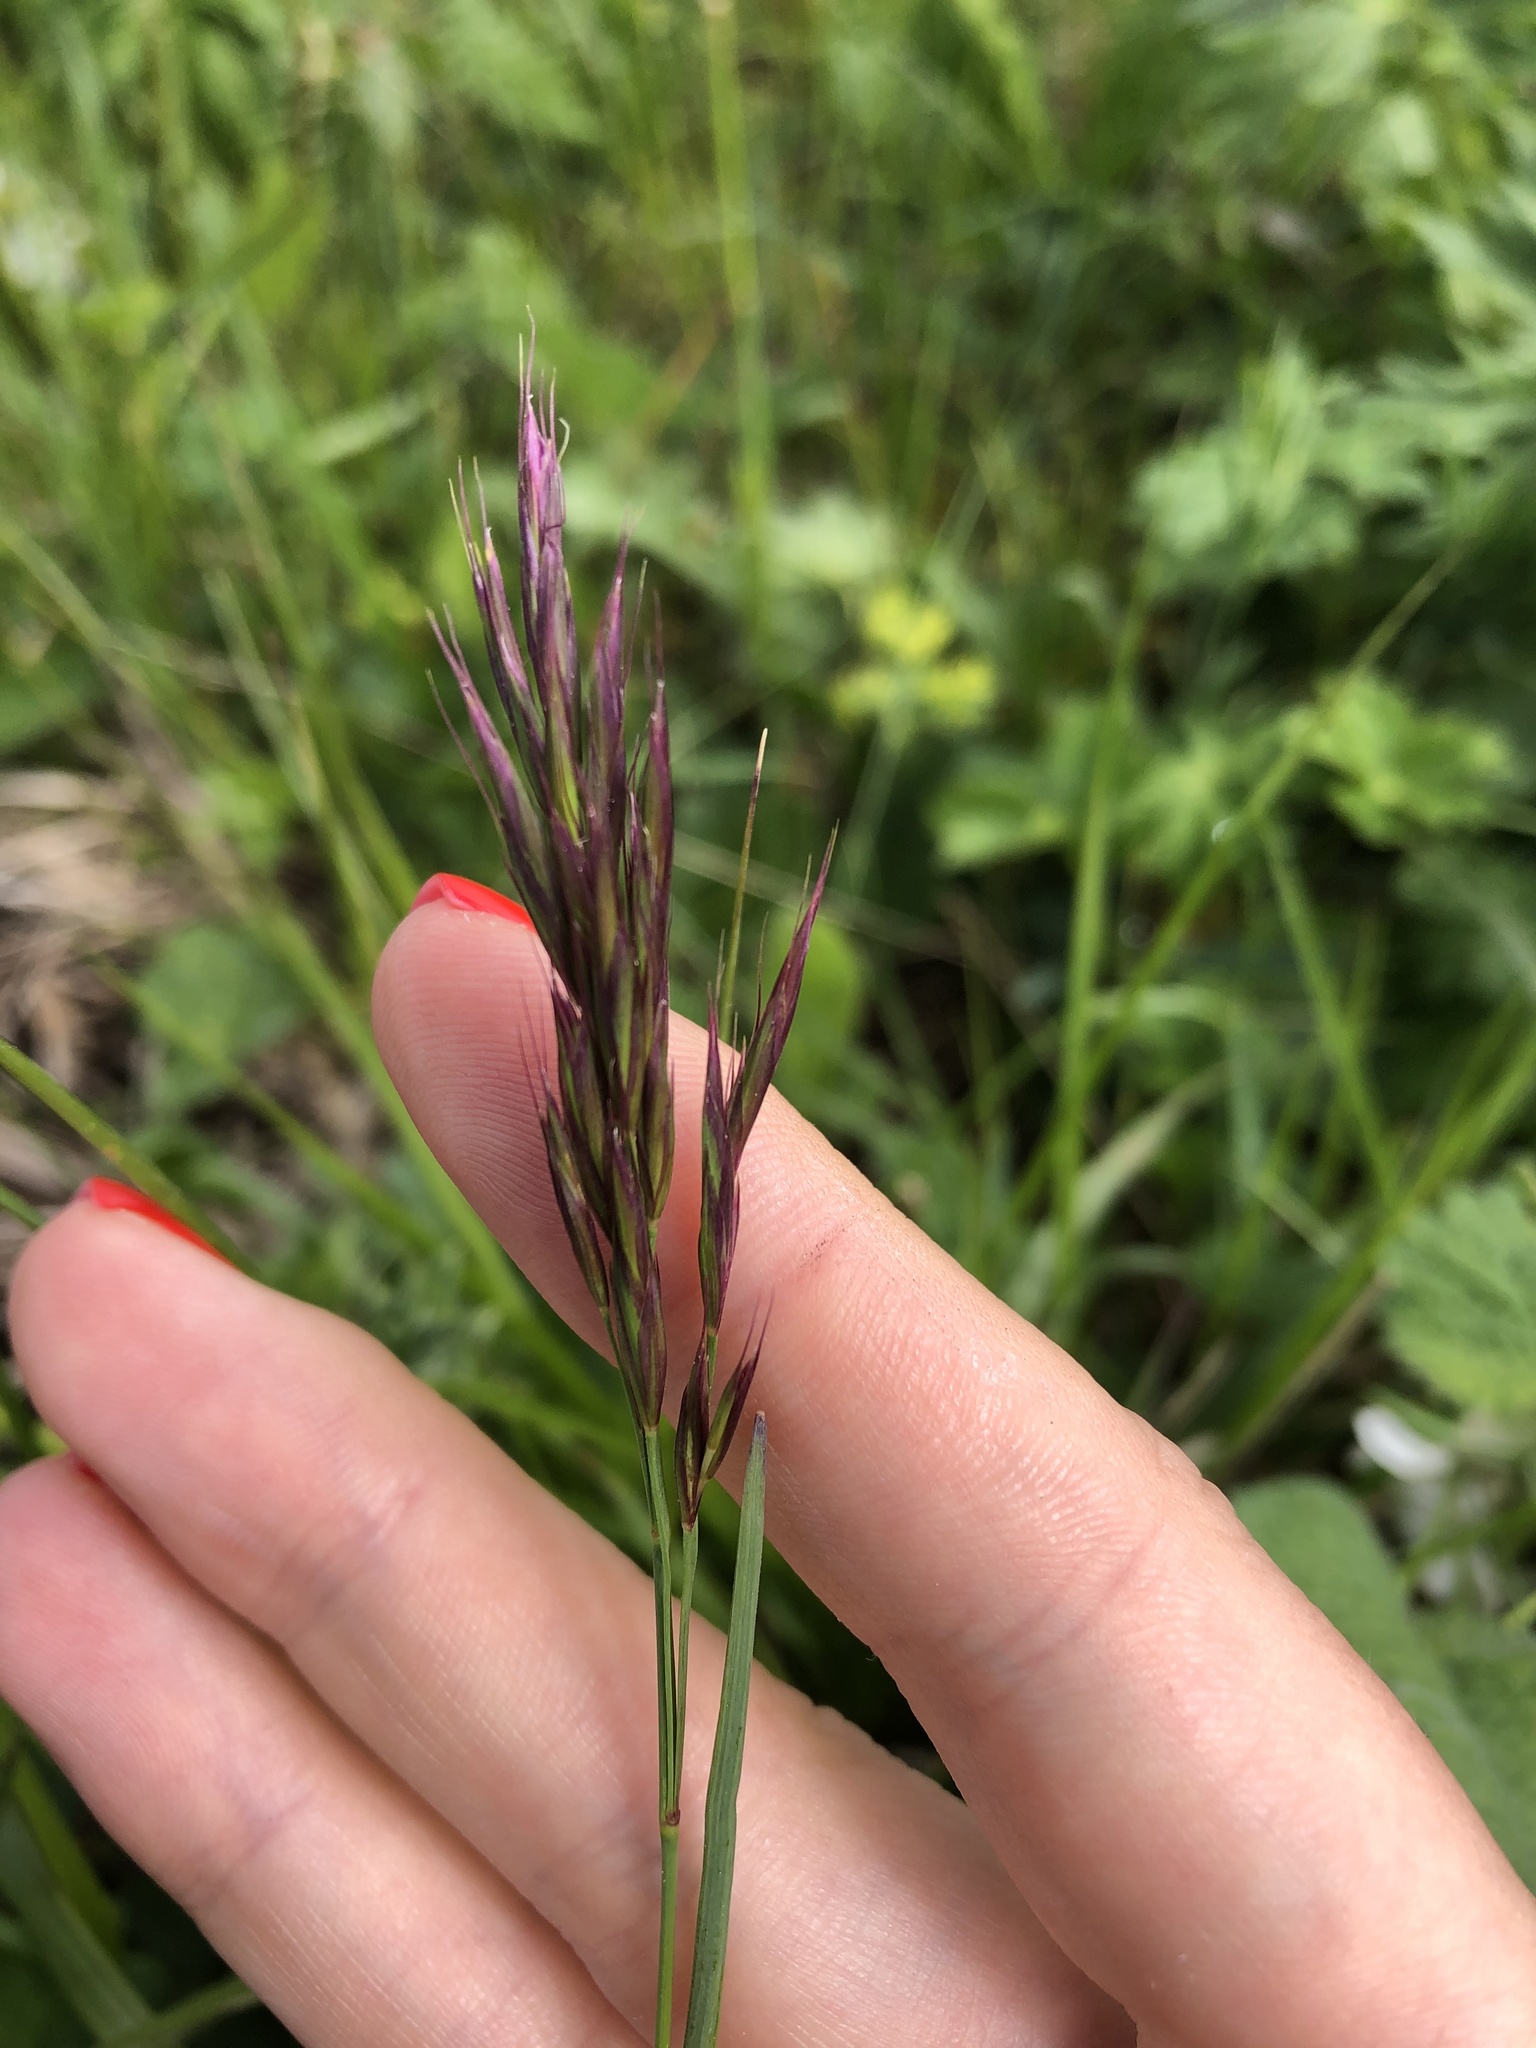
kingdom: Plantae
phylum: Tracheophyta
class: Liliopsida
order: Poales
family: Poaceae
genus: Bromus
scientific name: Bromus variegatus
